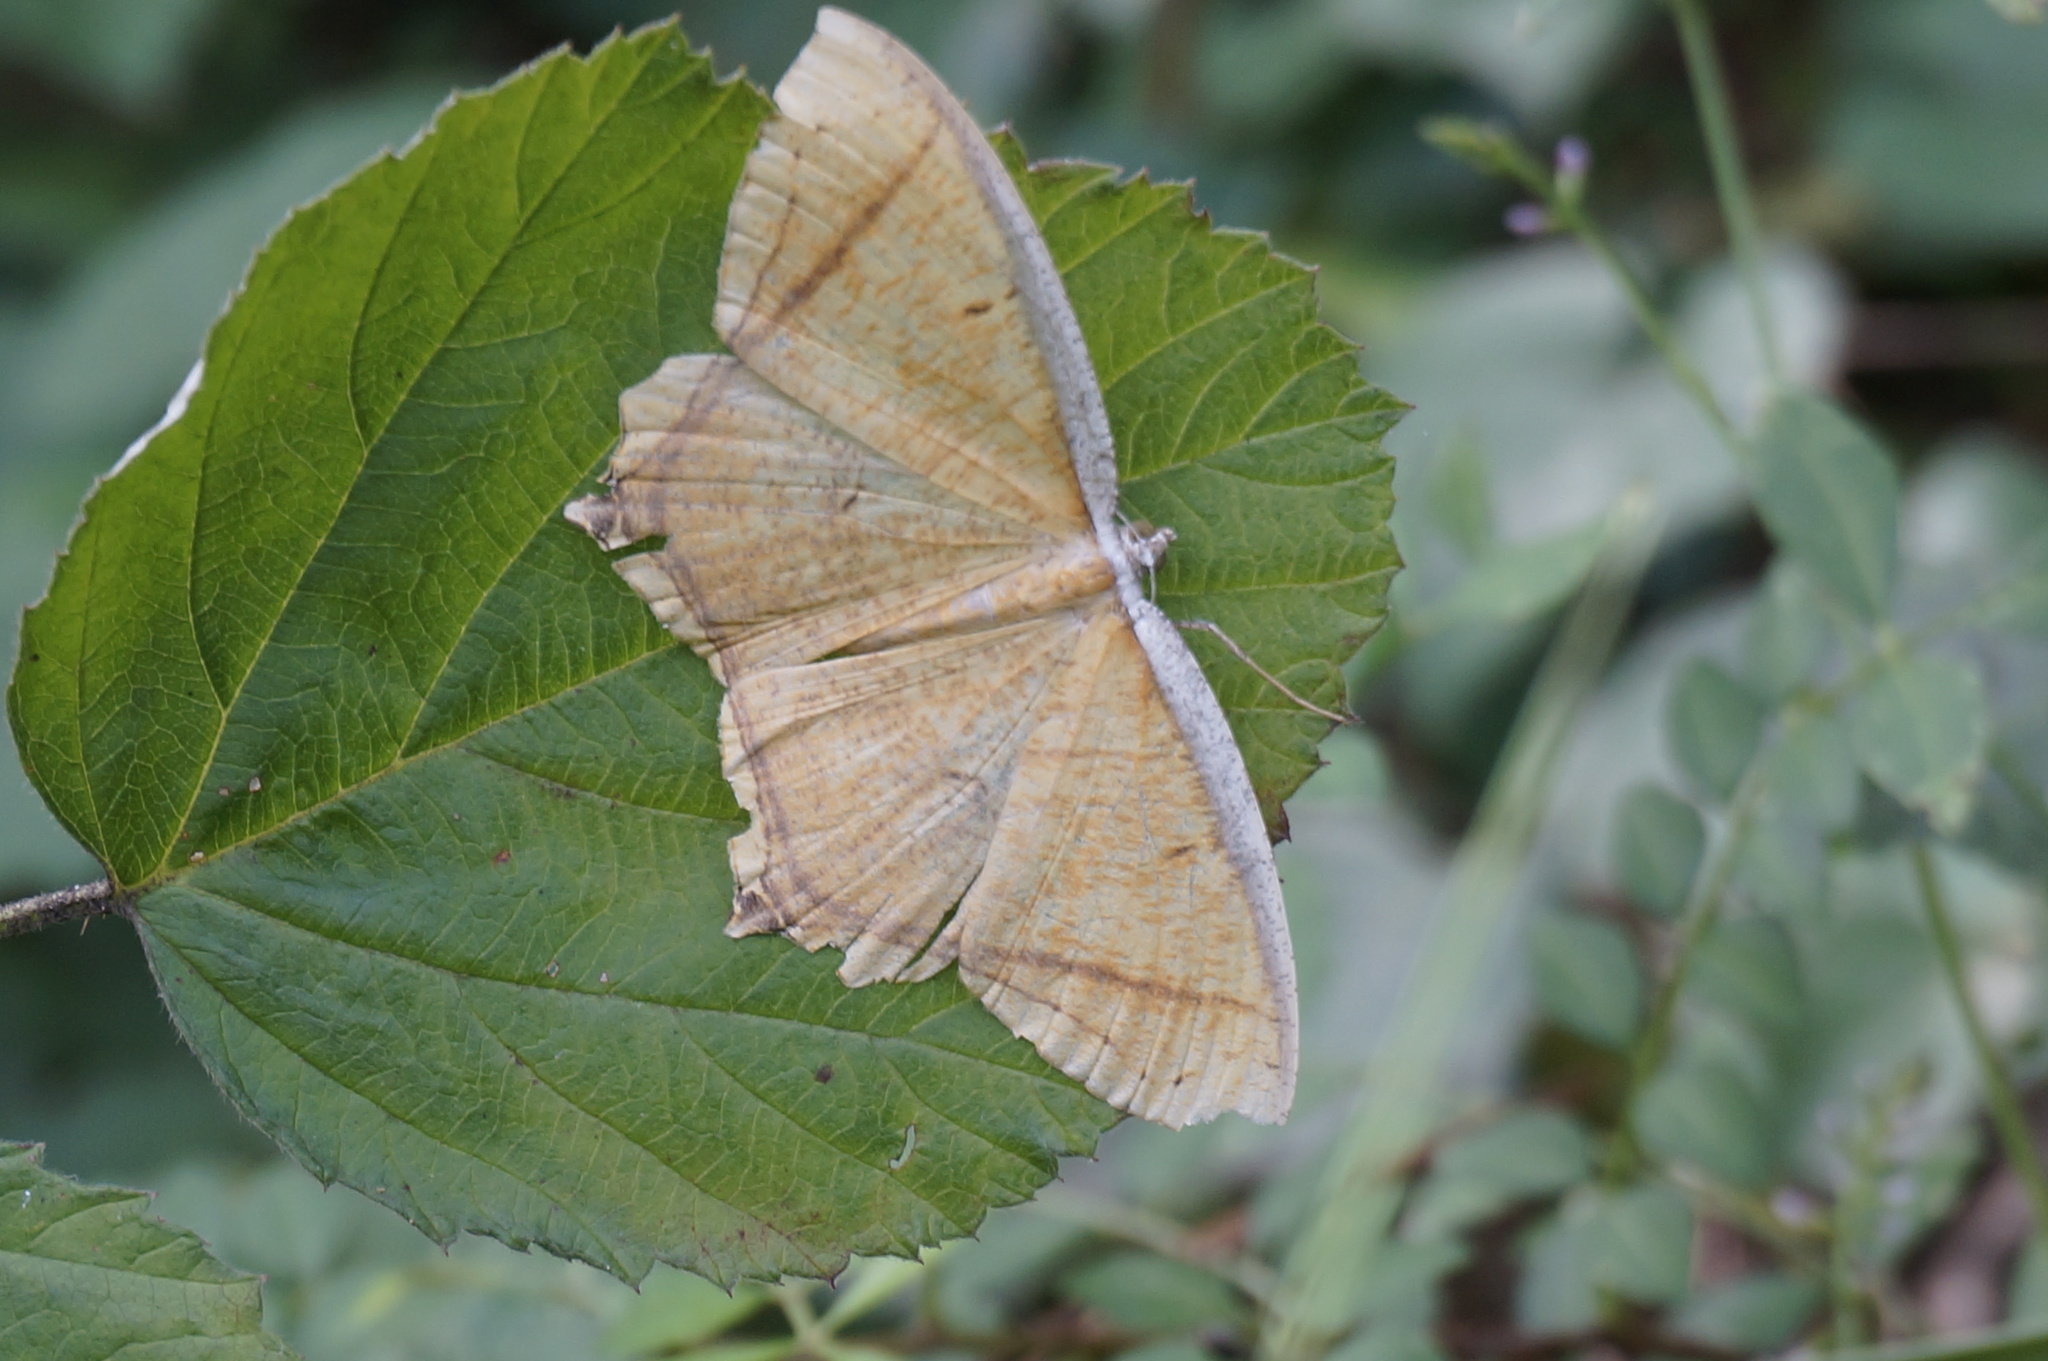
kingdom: Animalia
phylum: Arthropoda
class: Insecta
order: Lepidoptera
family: Geometridae
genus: Thinopteryx
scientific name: Thinopteryx crocoptera
